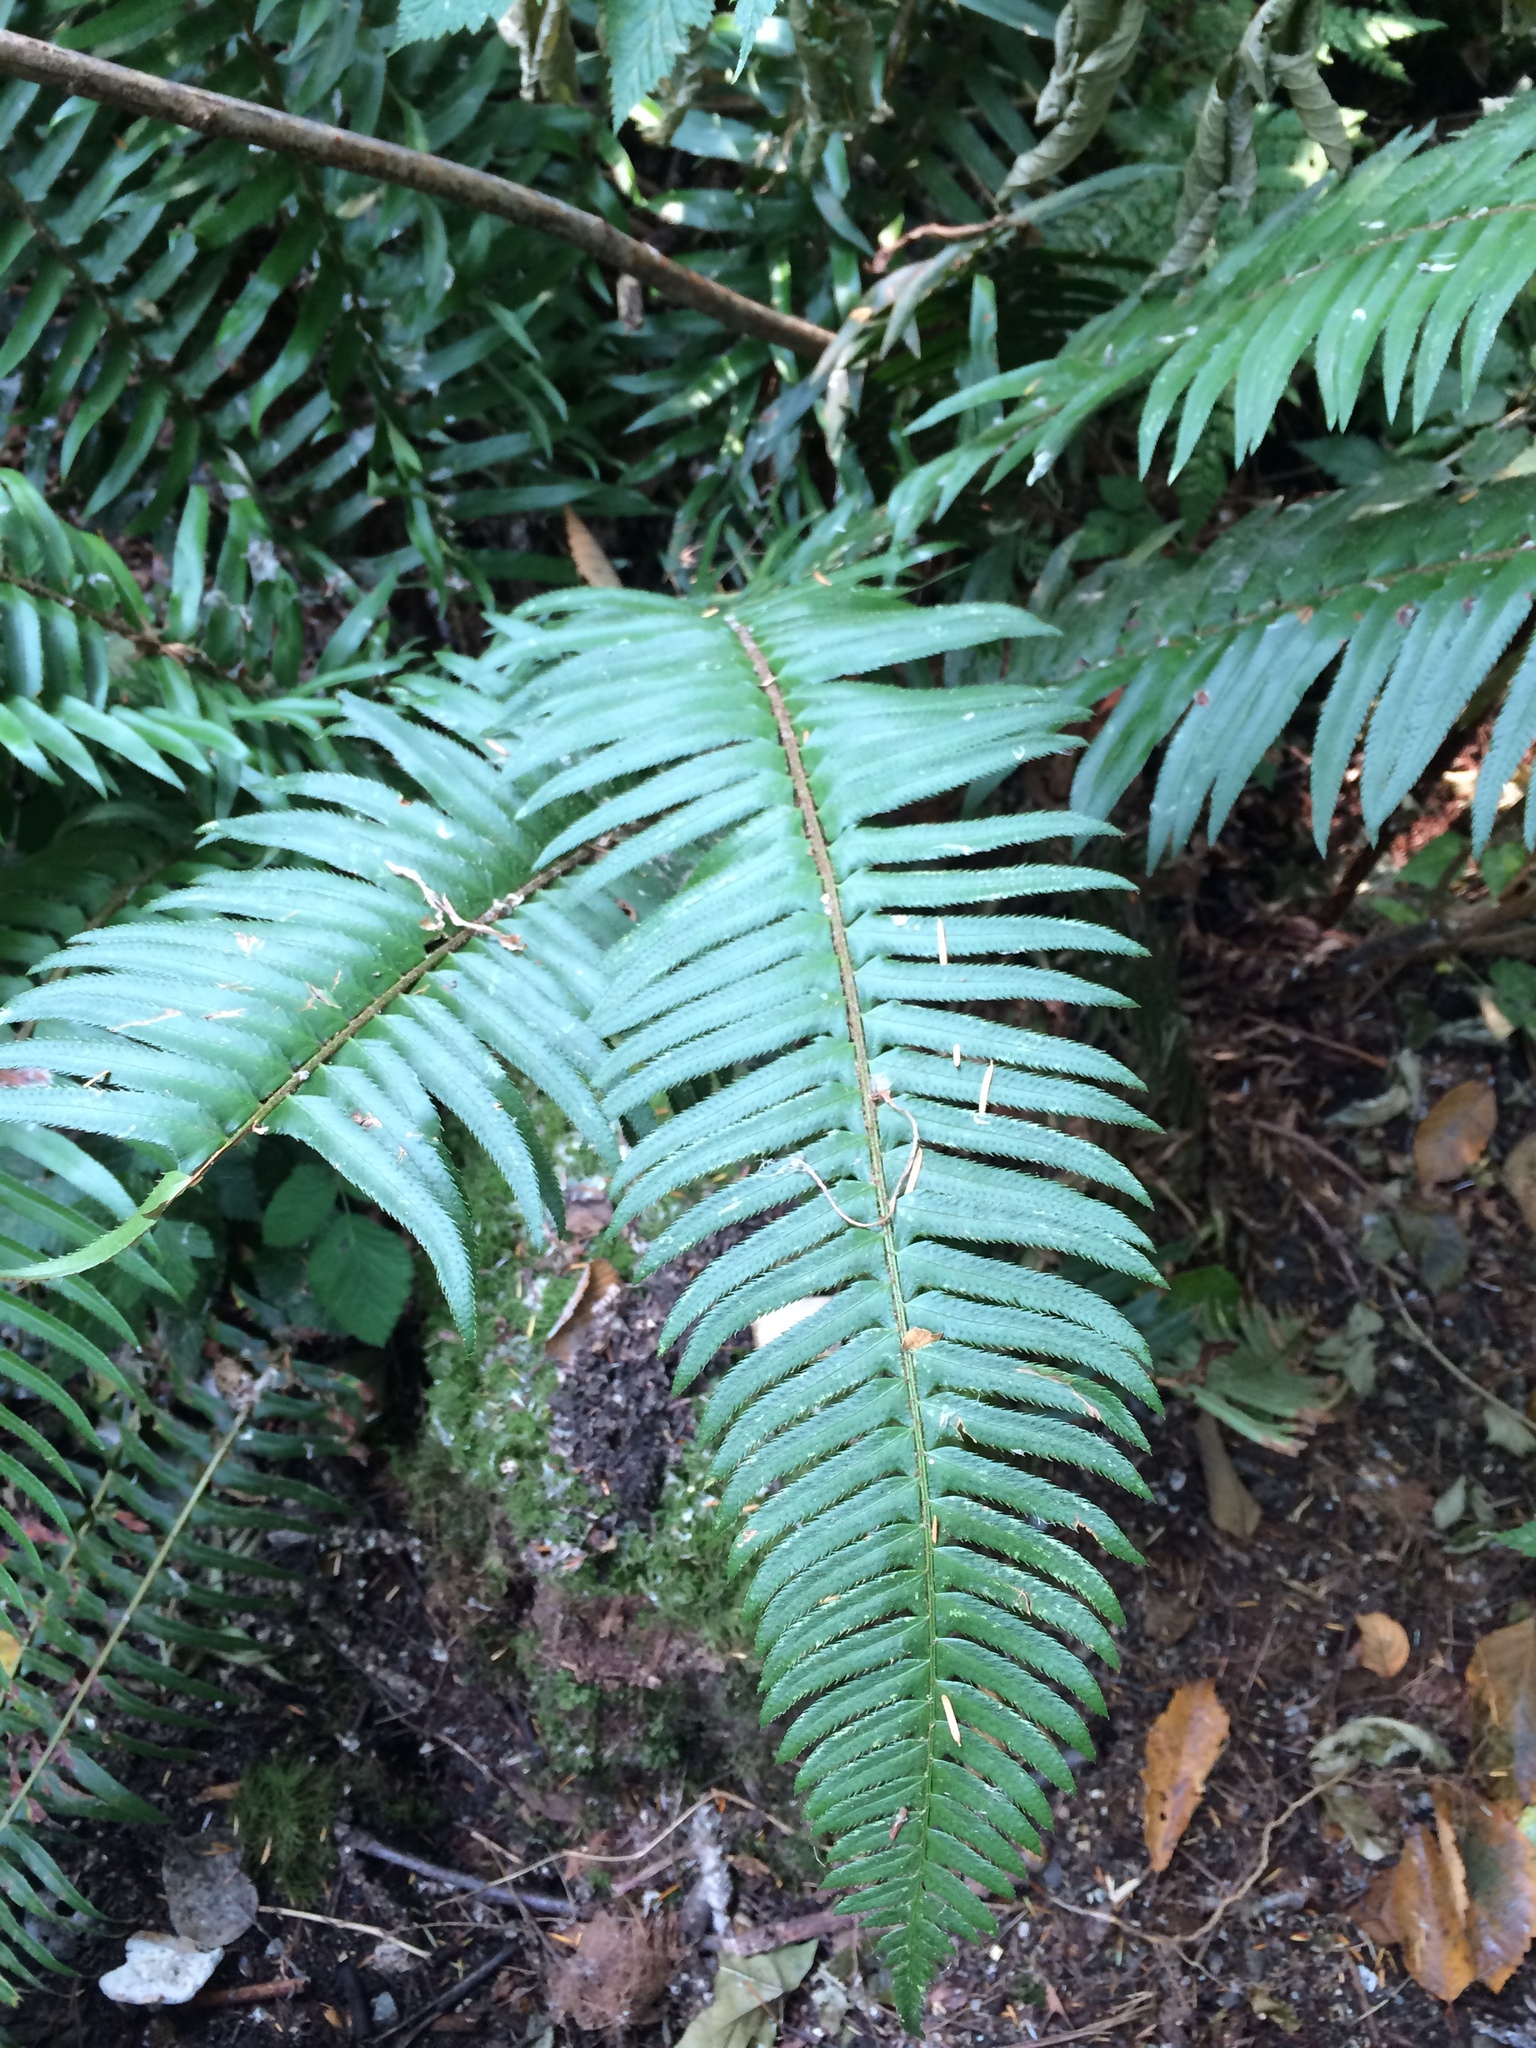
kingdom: Plantae
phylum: Tracheophyta
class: Polypodiopsida
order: Polypodiales
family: Dryopteridaceae
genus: Polystichum
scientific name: Polystichum munitum
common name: Western sword-fern
